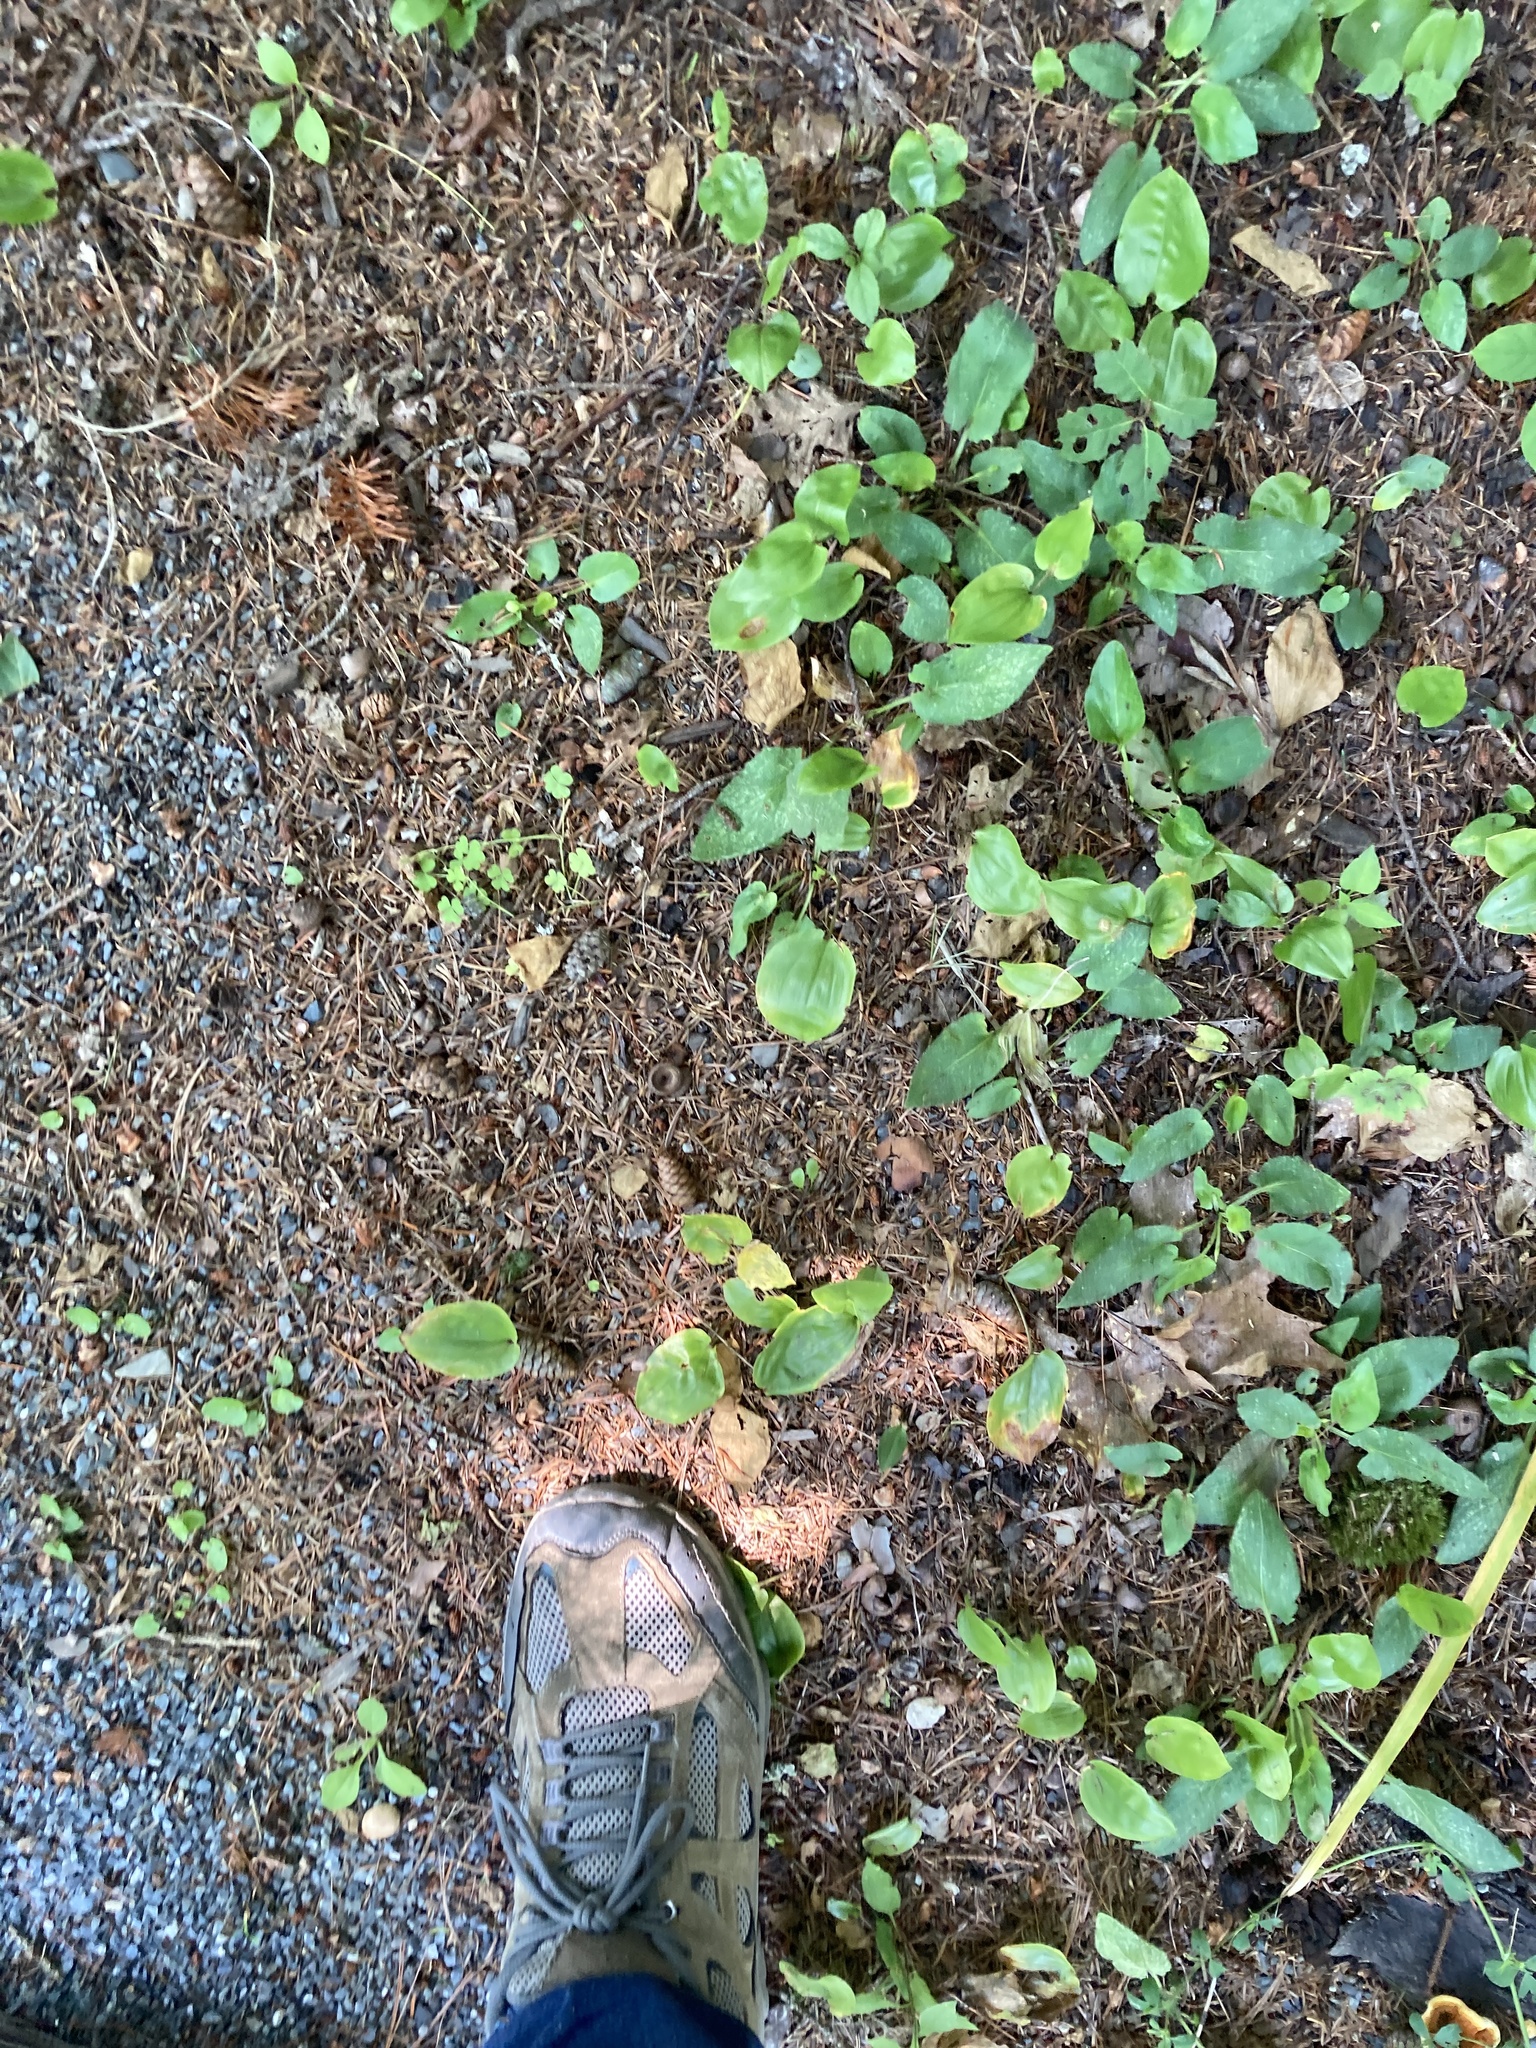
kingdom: Plantae
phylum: Tracheophyta
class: Liliopsida
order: Asparagales
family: Asparagaceae
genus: Maianthemum
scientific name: Maianthemum canadense
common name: False lily-of-the-valley
